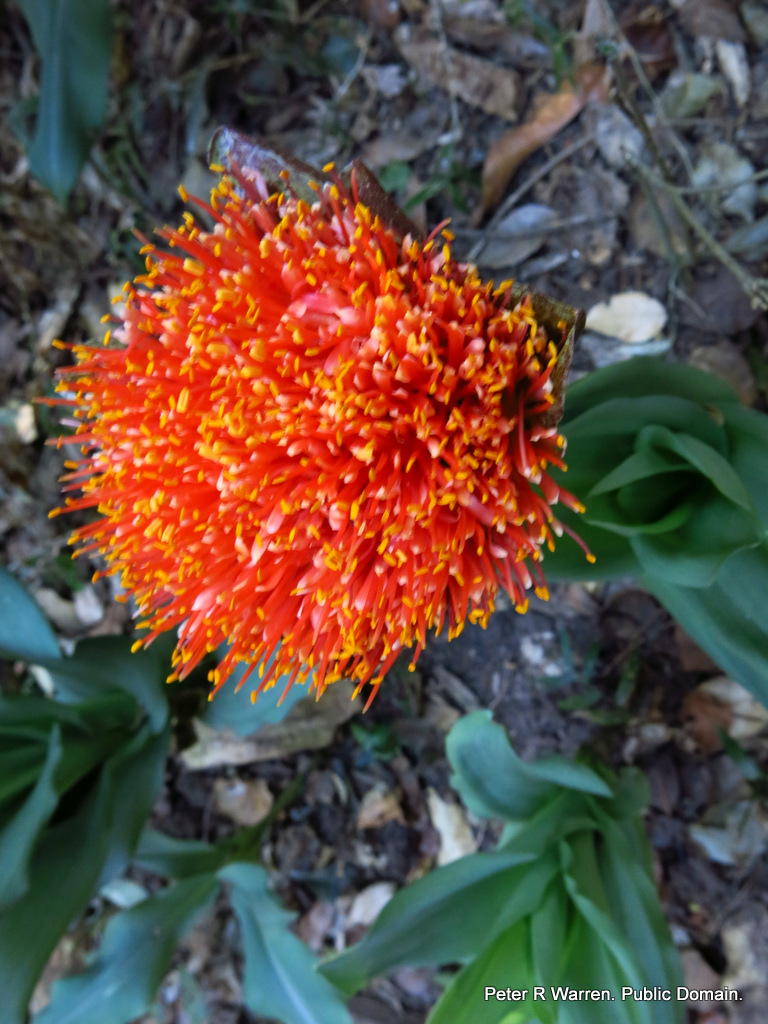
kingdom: Plantae
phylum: Tracheophyta
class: Liliopsida
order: Asparagales
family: Amaryllidaceae
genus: Scadoxus
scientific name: Scadoxus puniceus
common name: Royal-paintbrush
